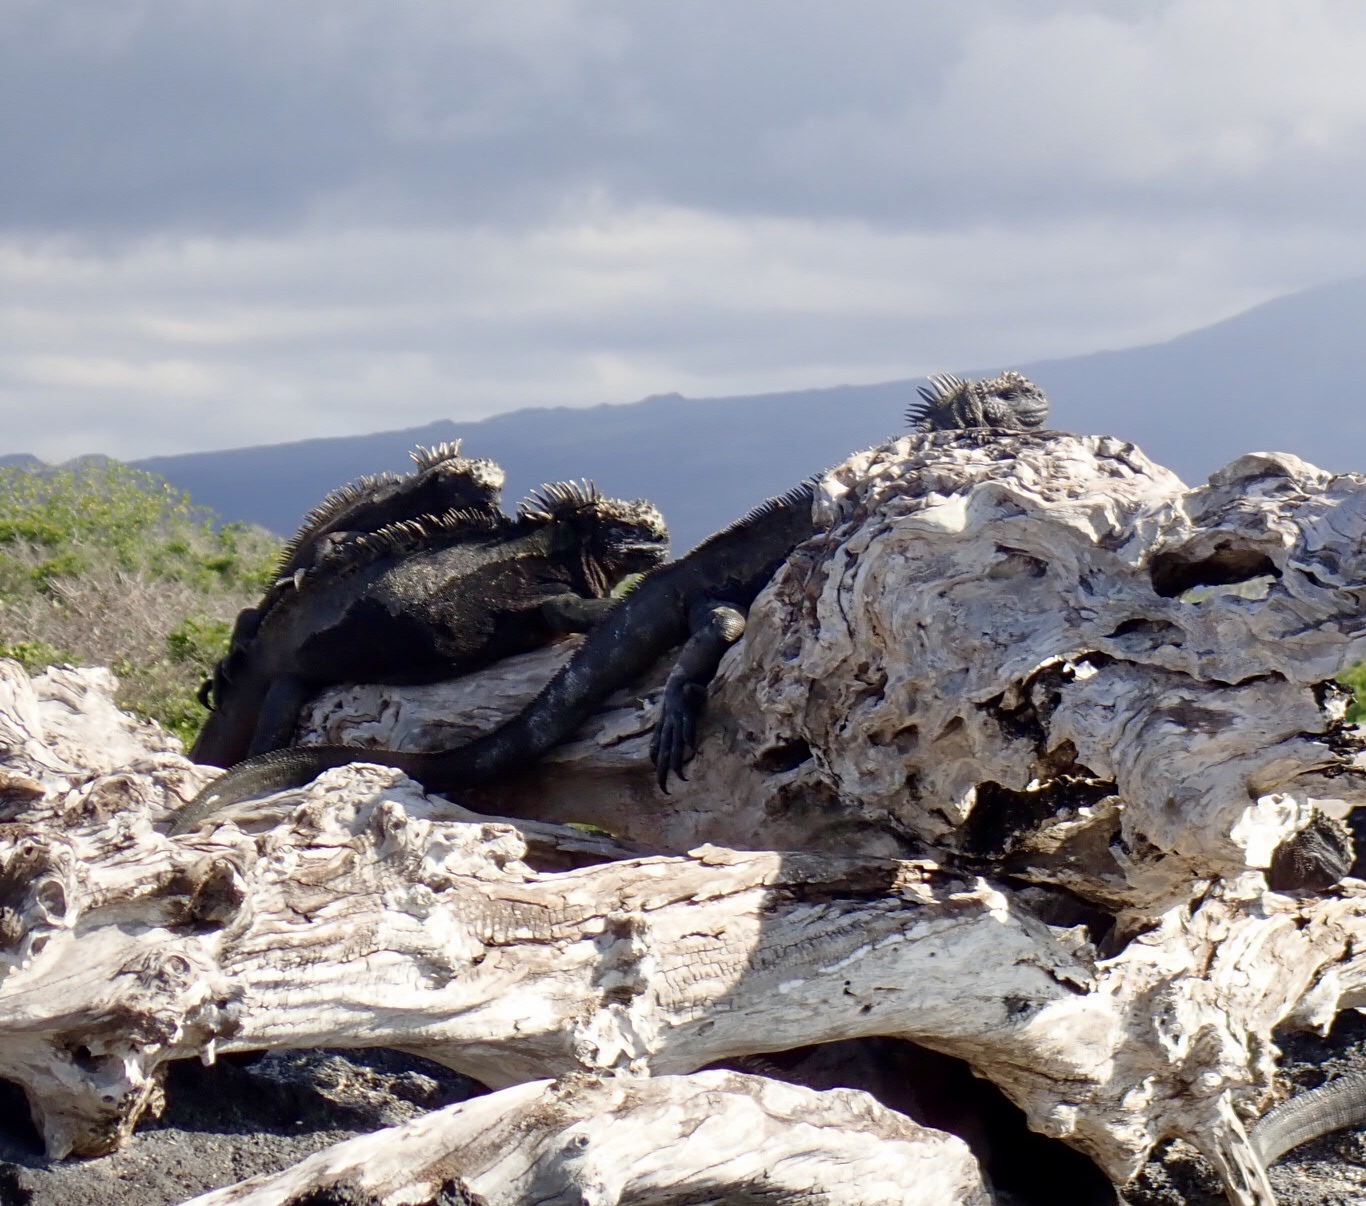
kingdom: Animalia
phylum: Chordata
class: Squamata
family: Iguanidae
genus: Amblyrhynchus
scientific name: Amblyrhynchus cristatus
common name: Marine iguana
